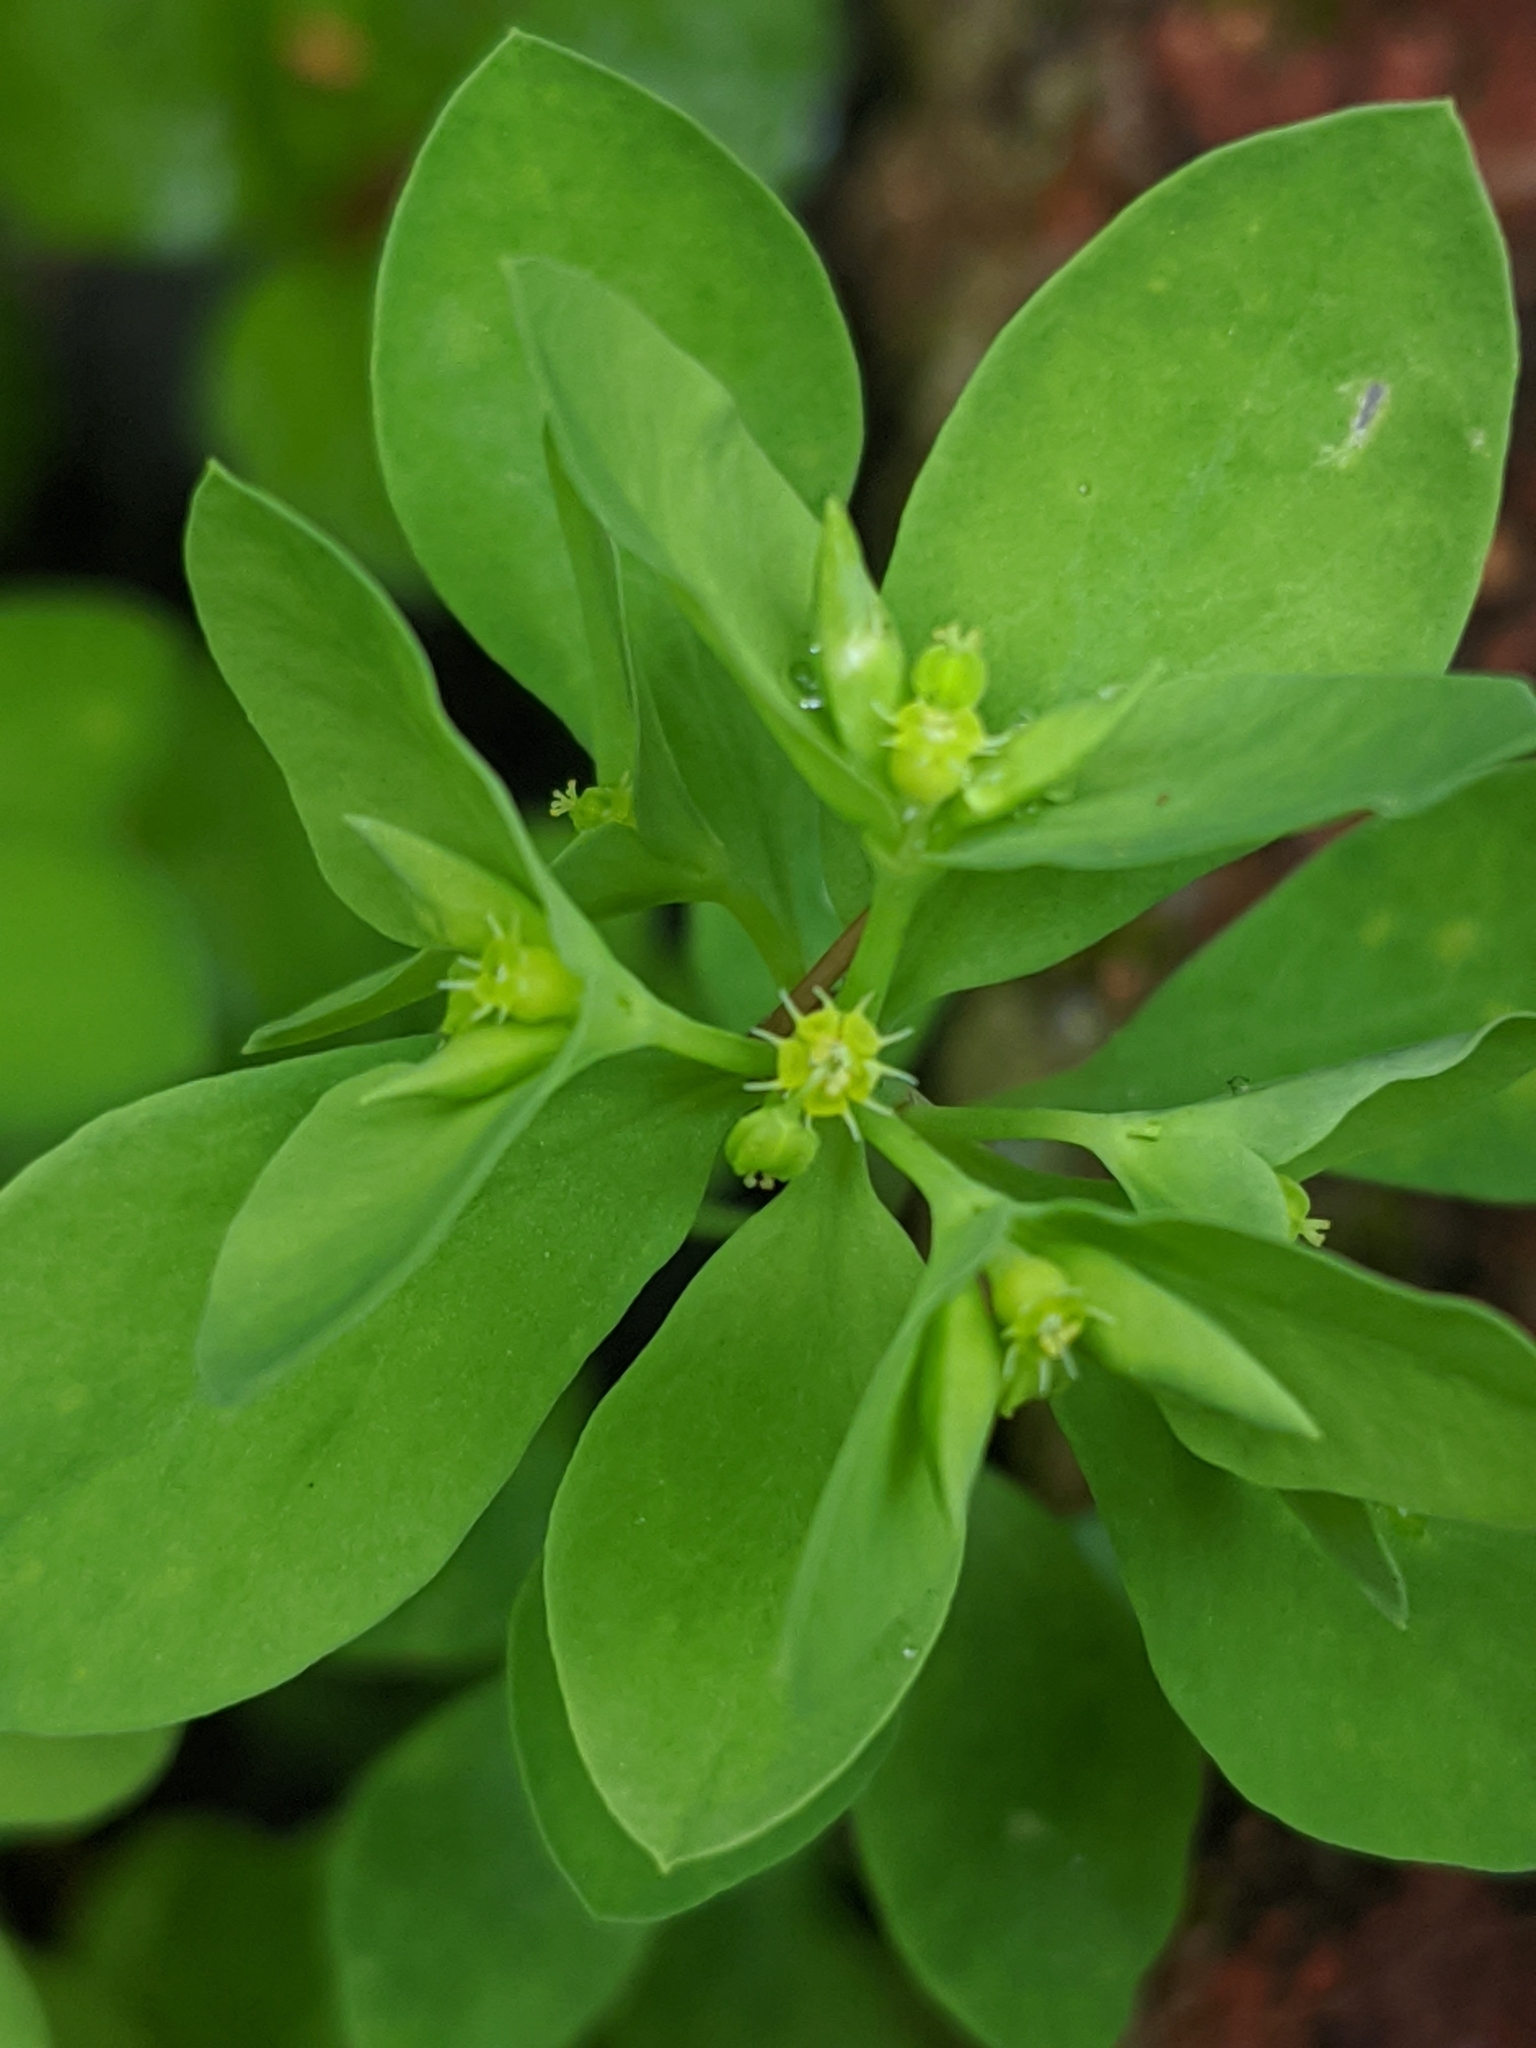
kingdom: Plantae
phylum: Tracheophyta
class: Magnoliopsida
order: Malpighiales
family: Euphorbiaceae
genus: Euphorbia
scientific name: Euphorbia peplus
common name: Petty spurge
